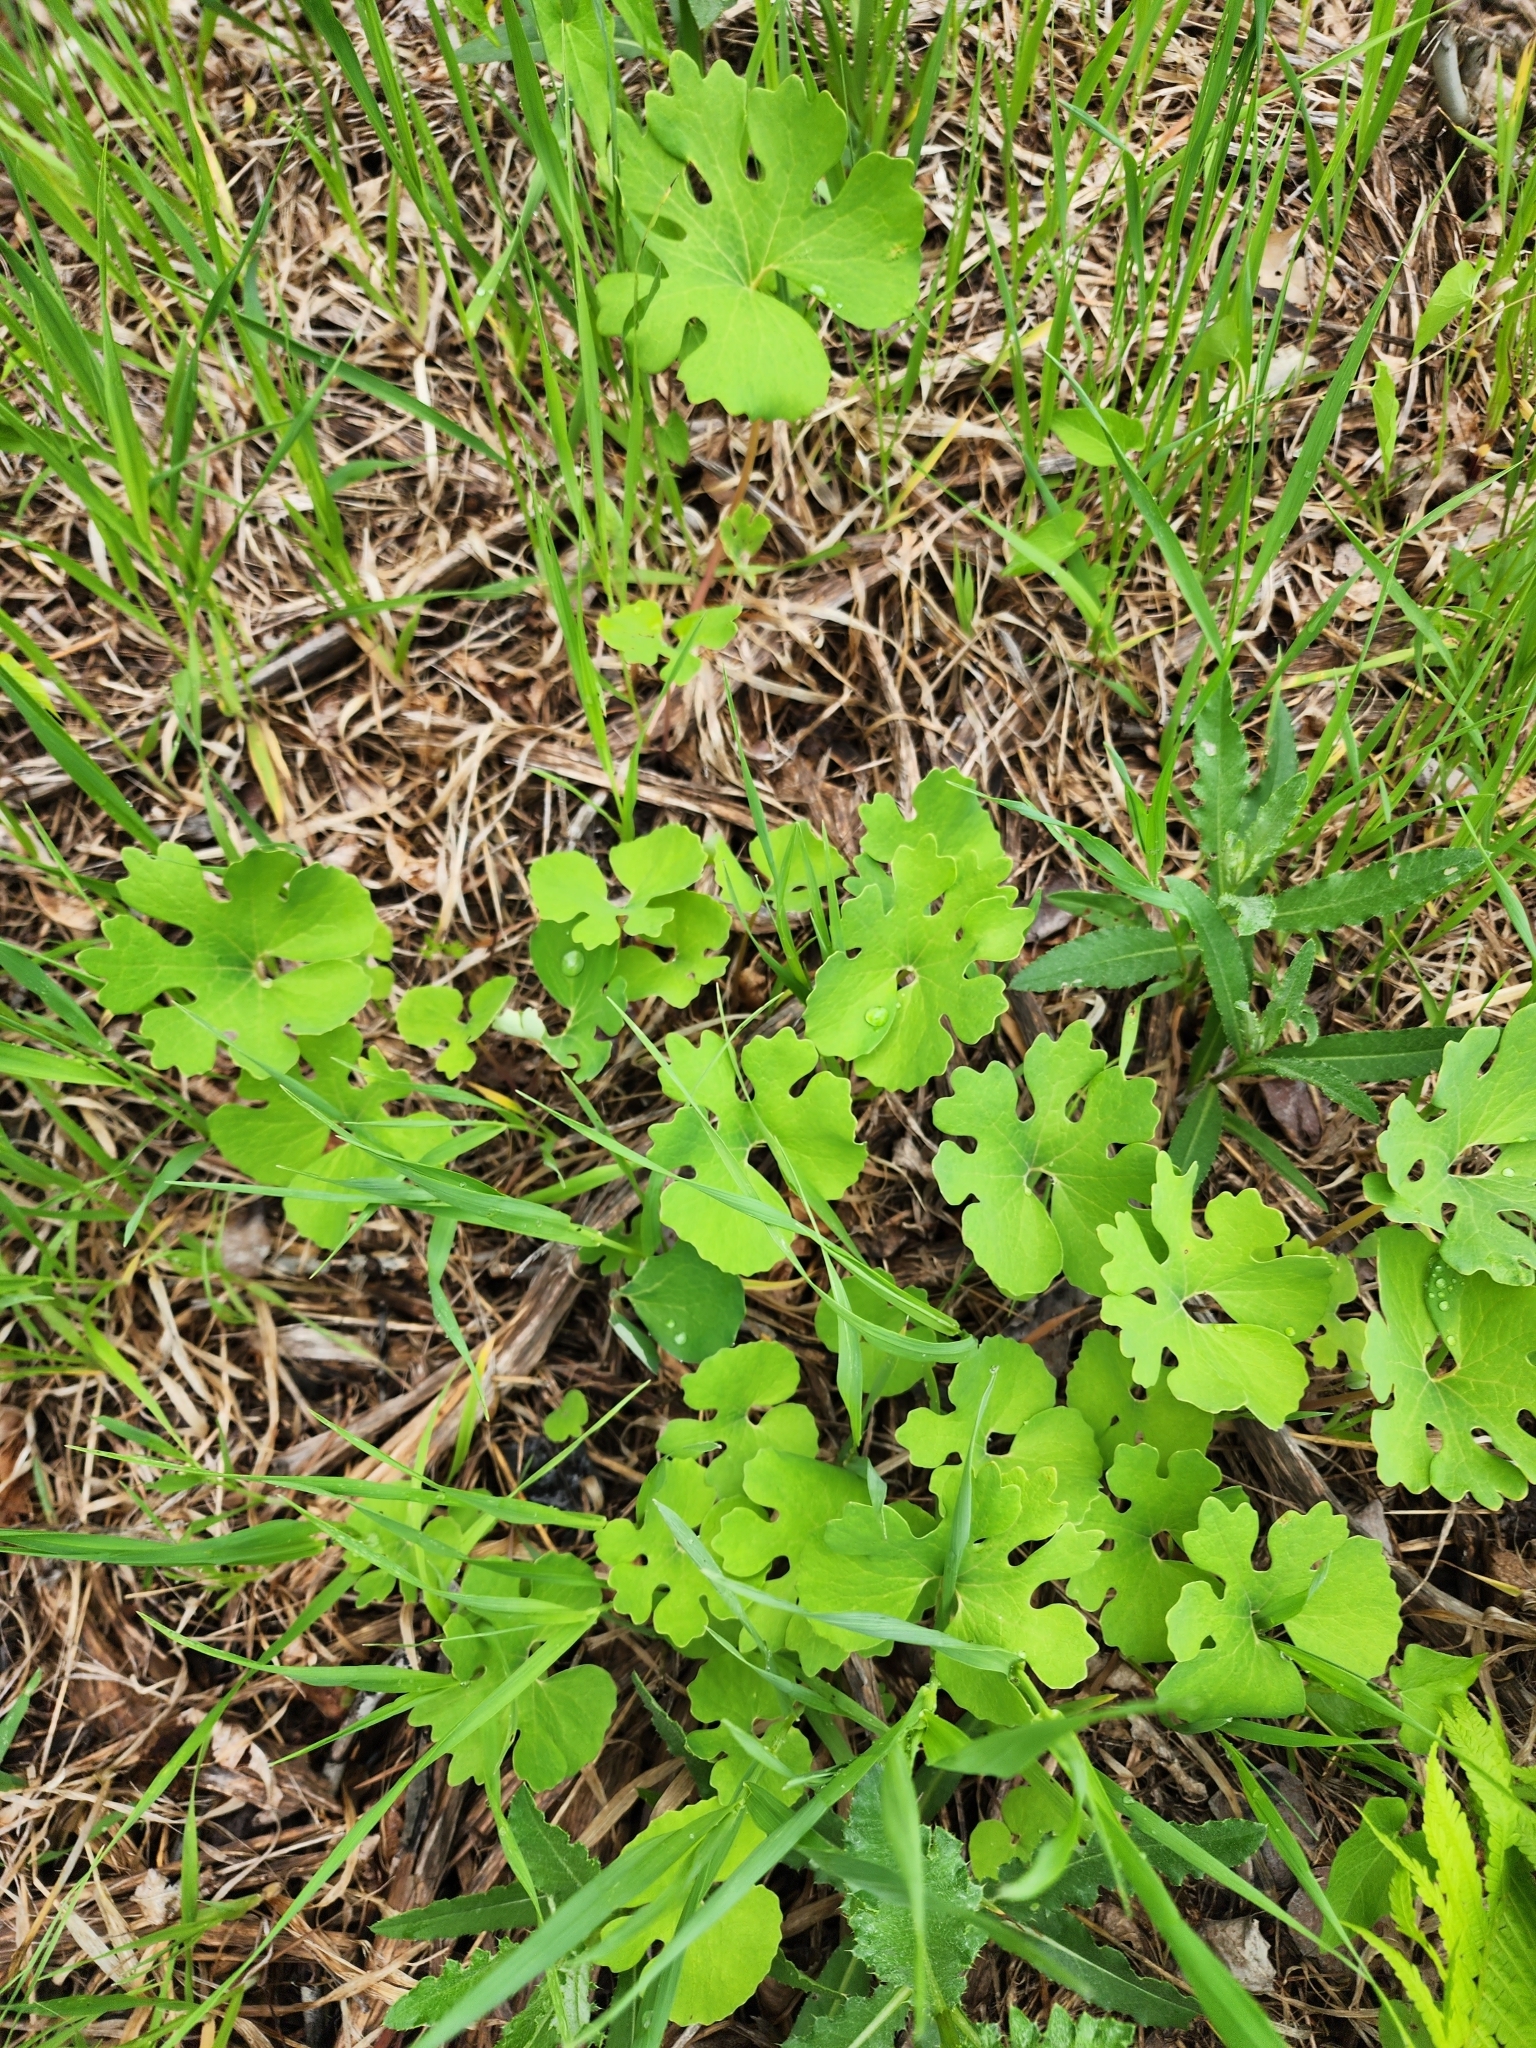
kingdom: Plantae
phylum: Tracheophyta
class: Magnoliopsida
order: Ranunculales
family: Papaveraceae
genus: Sanguinaria
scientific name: Sanguinaria canadensis
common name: Bloodroot
